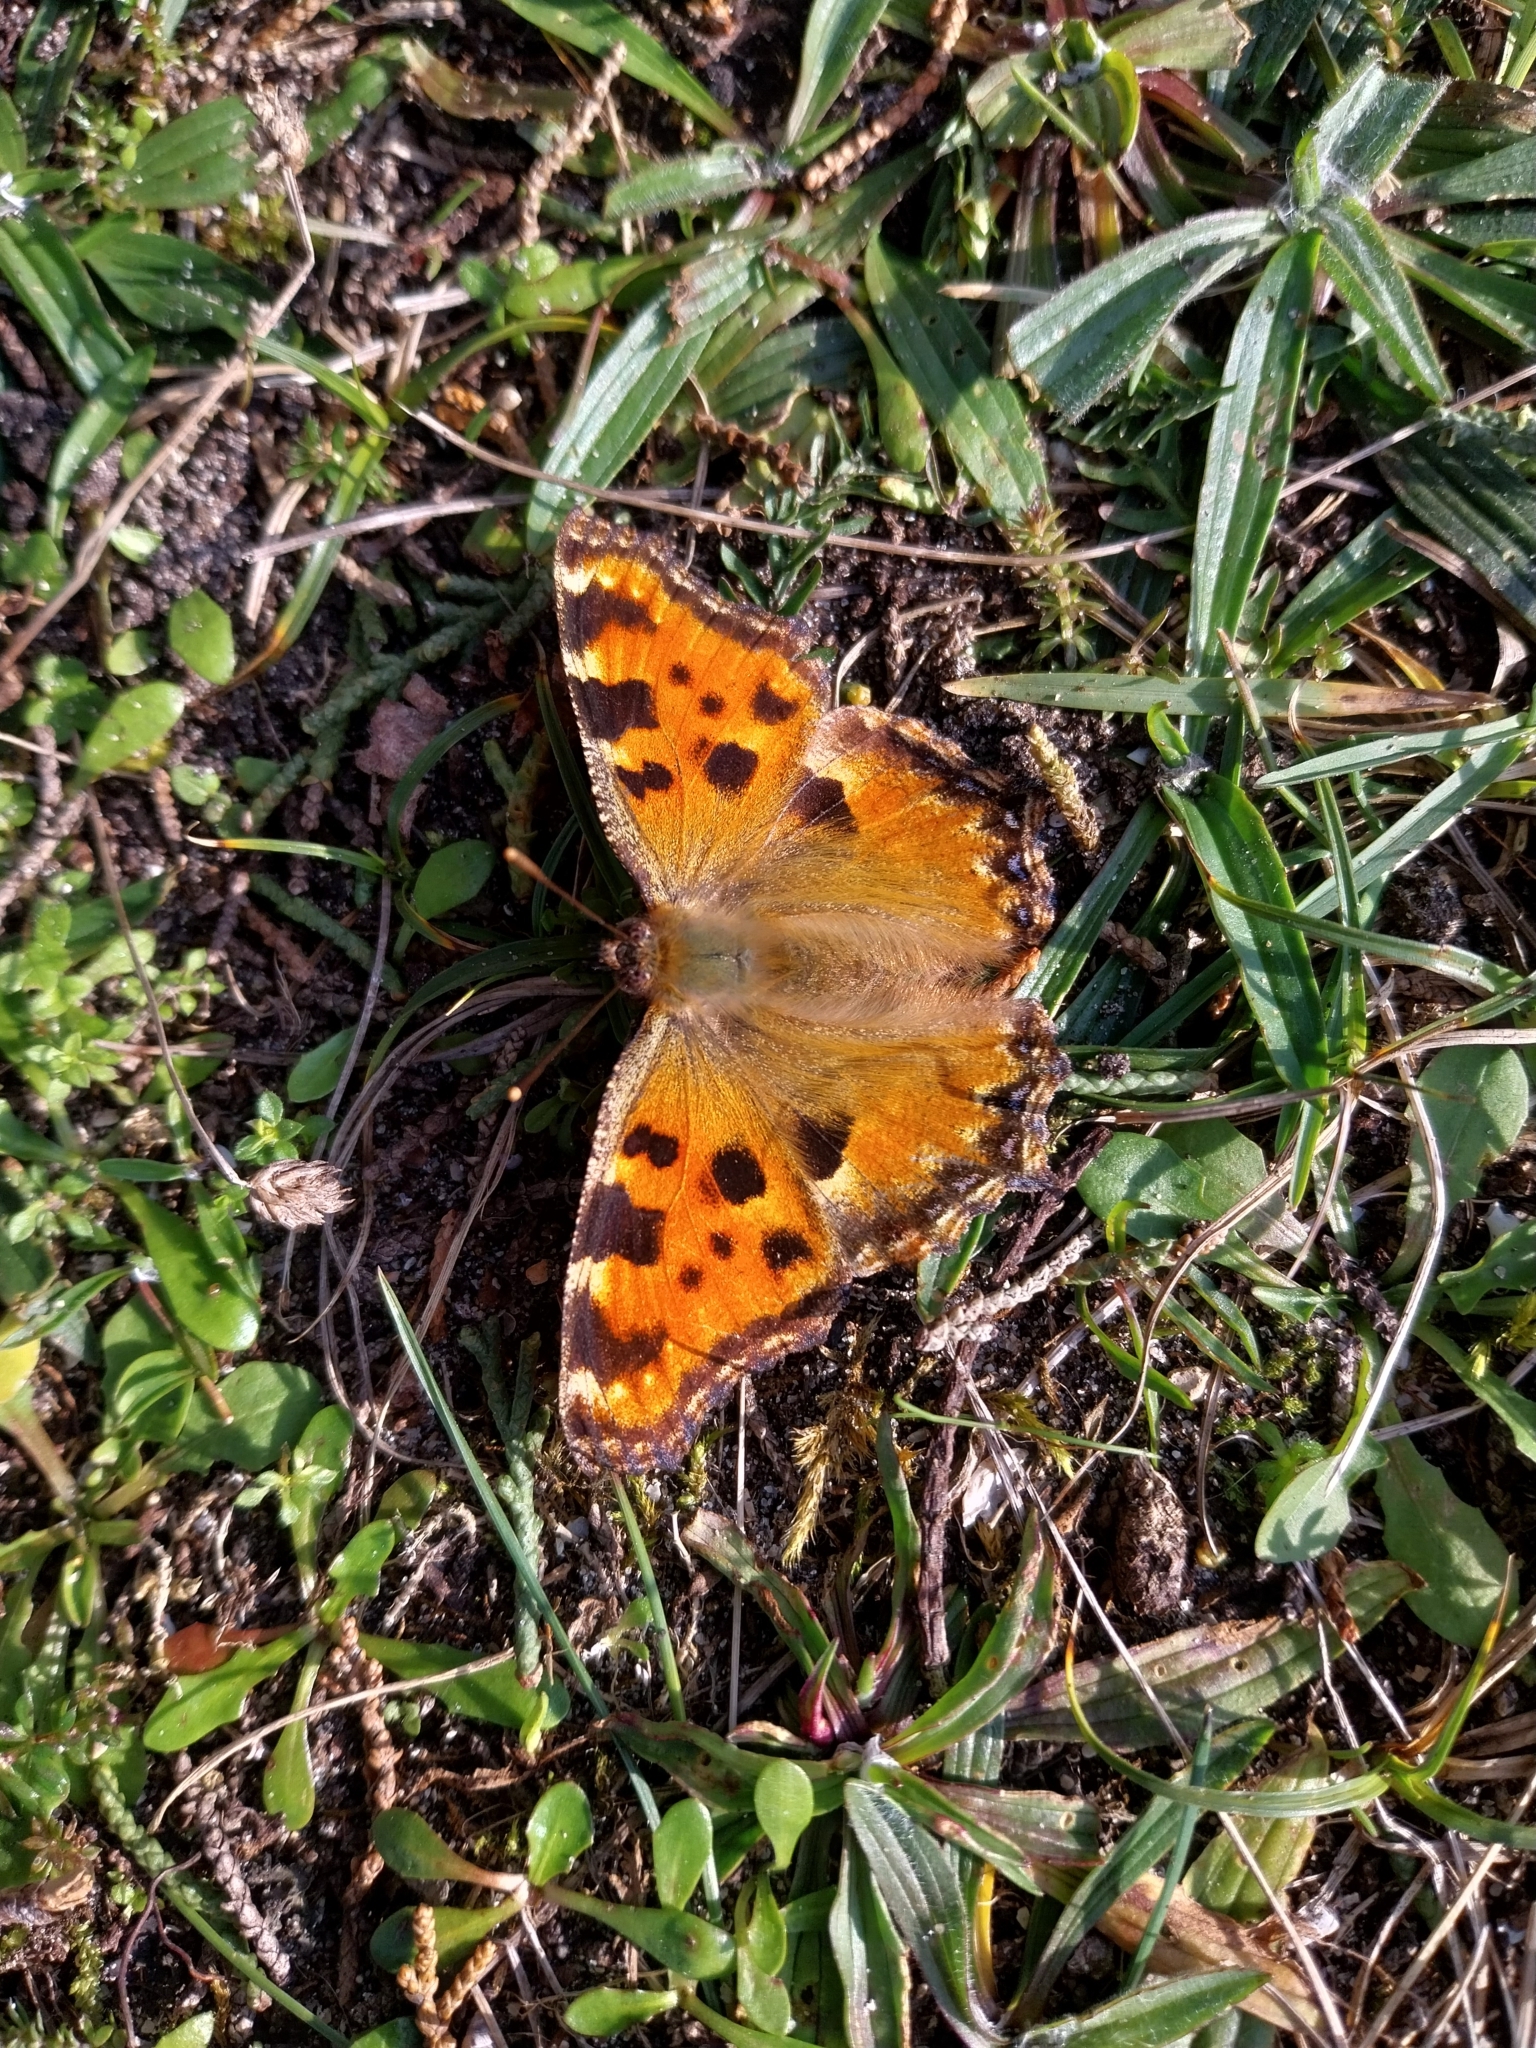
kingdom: Animalia
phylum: Arthropoda
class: Insecta
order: Lepidoptera
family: Nymphalidae
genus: Nymphalis
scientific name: Nymphalis polychloros
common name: Large tortoiseshell
